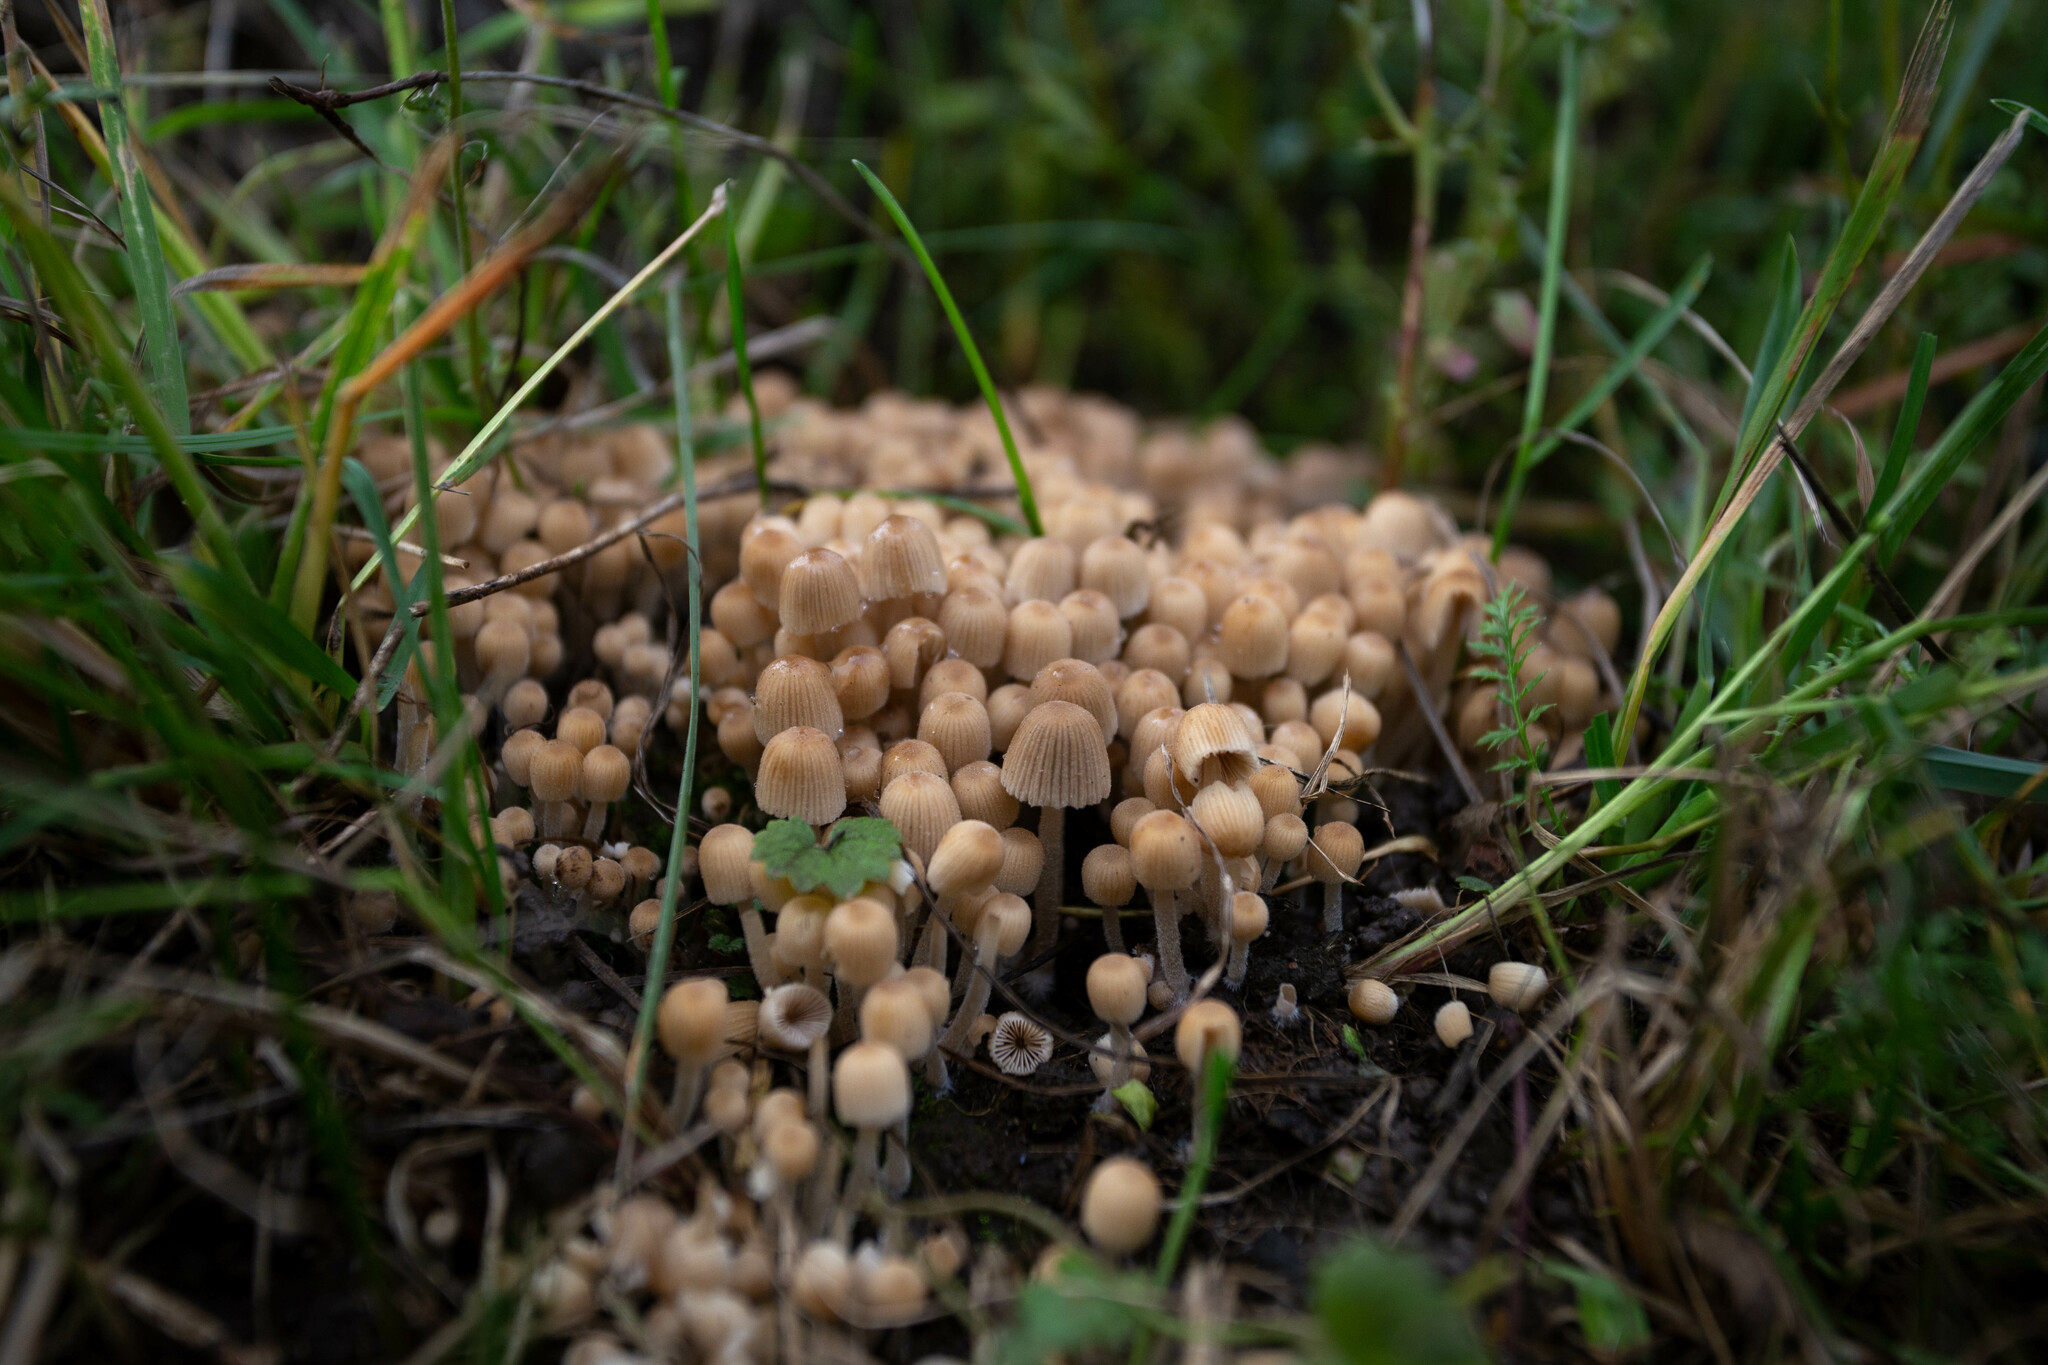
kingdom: Fungi
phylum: Basidiomycota
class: Agaricomycetes
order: Agaricales
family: Psathyrellaceae
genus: Coprinellus
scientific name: Coprinellus disseminatus
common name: Fairies' bonnets
